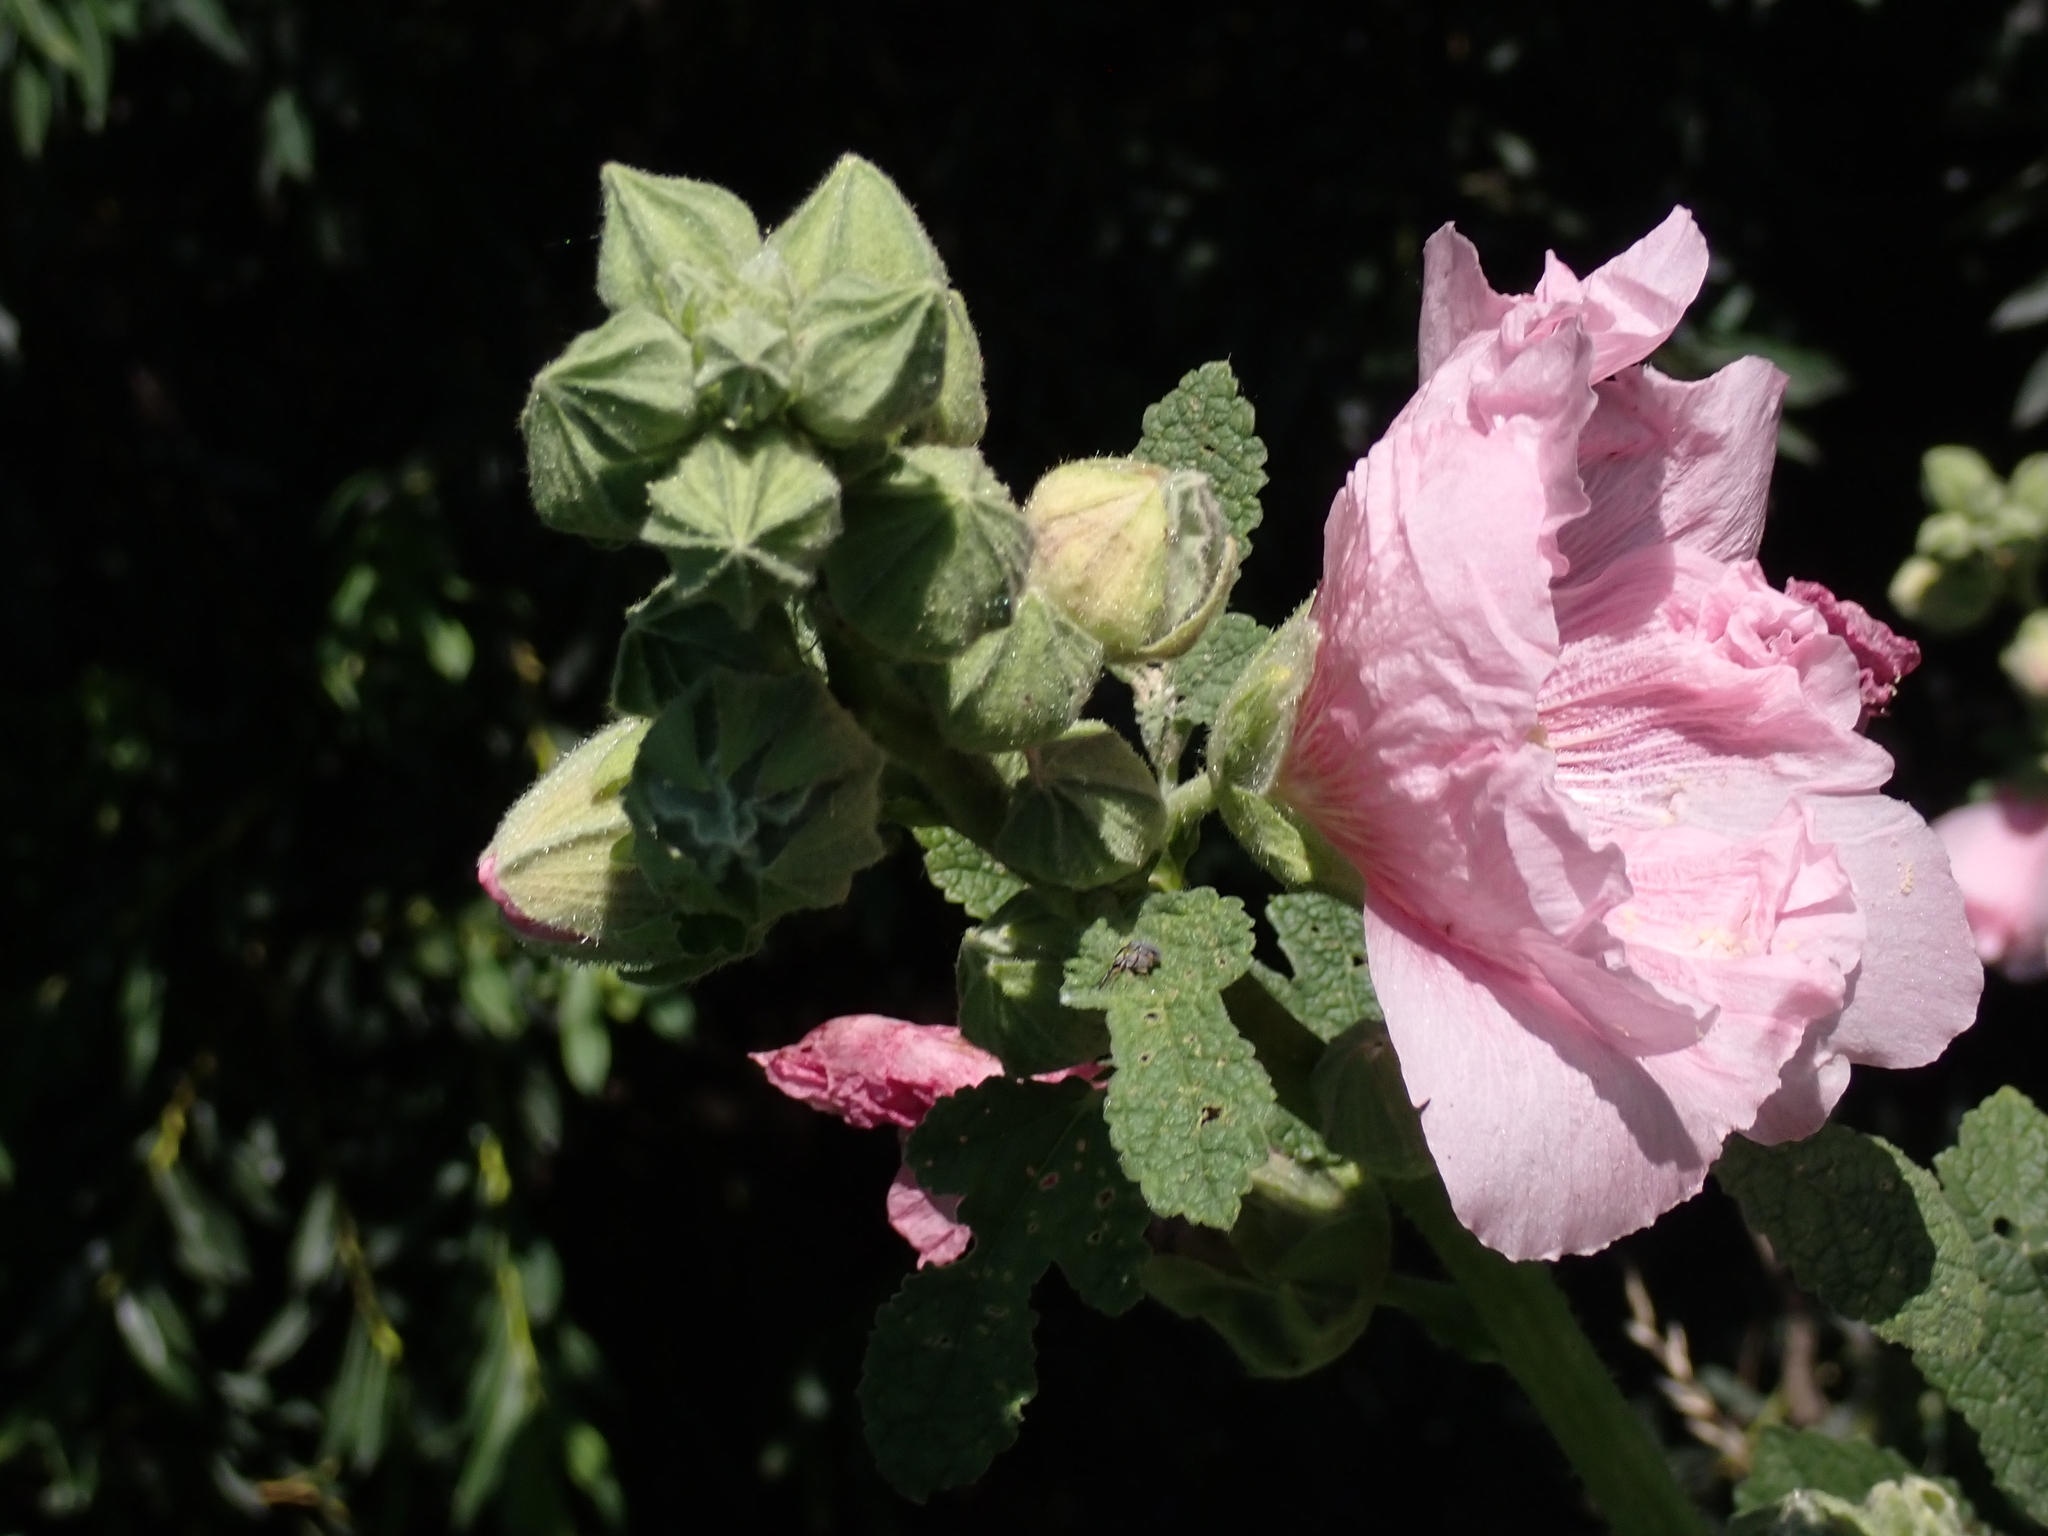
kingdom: Plantae
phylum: Tracheophyta
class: Magnoliopsida
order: Malvales
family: Malvaceae
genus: Alcea
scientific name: Alcea rosea
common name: Hollyhock
